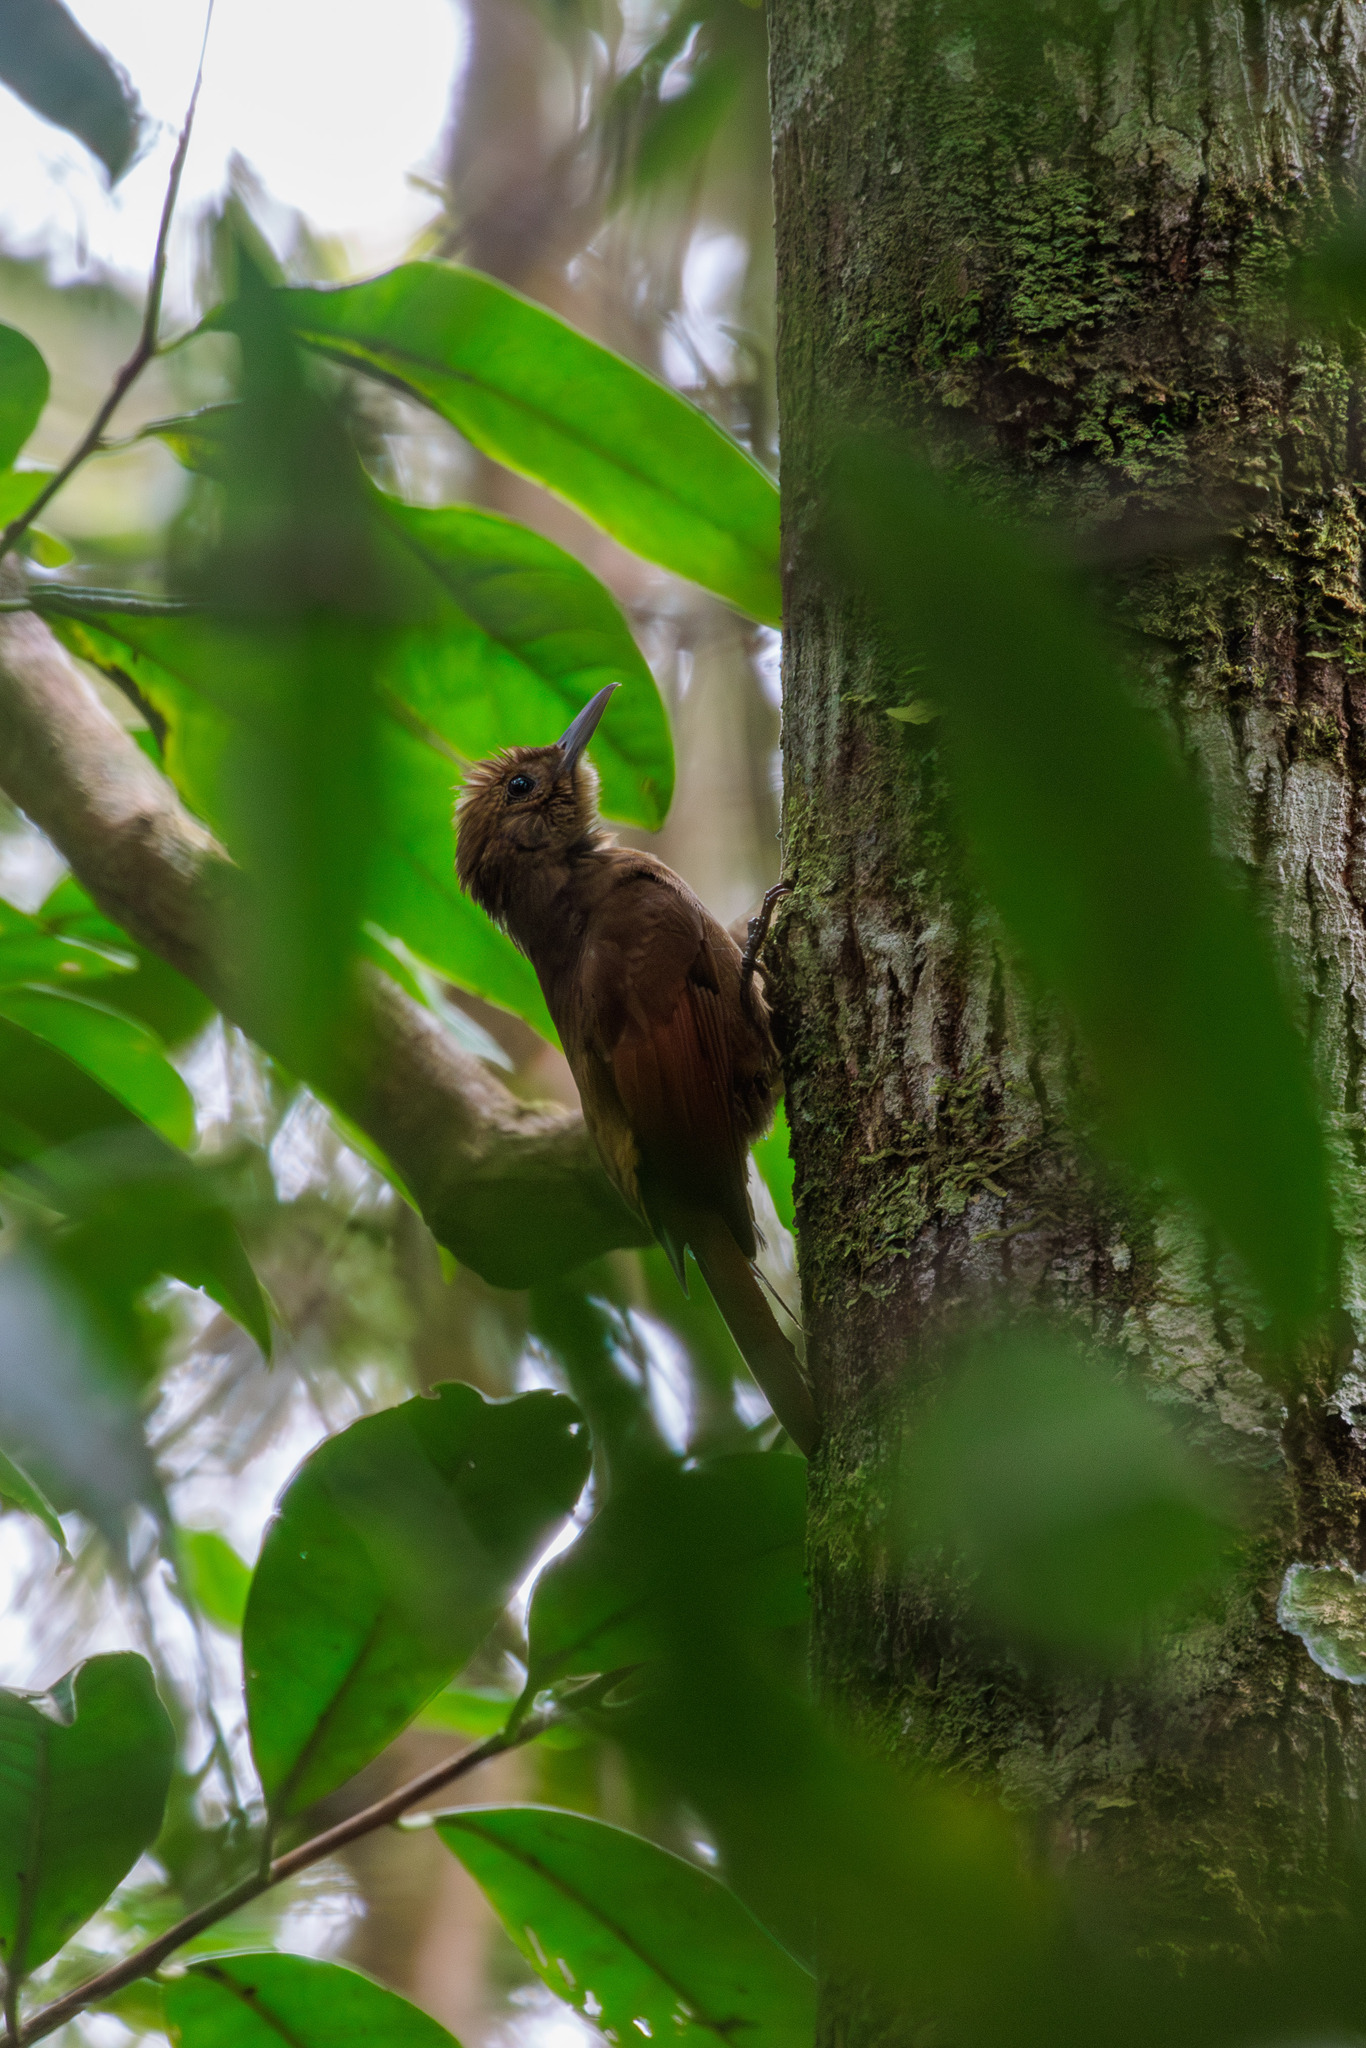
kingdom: Animalia
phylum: Chordata
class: Aves
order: Passeriformes
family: Furnariidae
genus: Dendrocincla
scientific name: Dendrocincla fuliginosa
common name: Plain-brown woodcreeper
